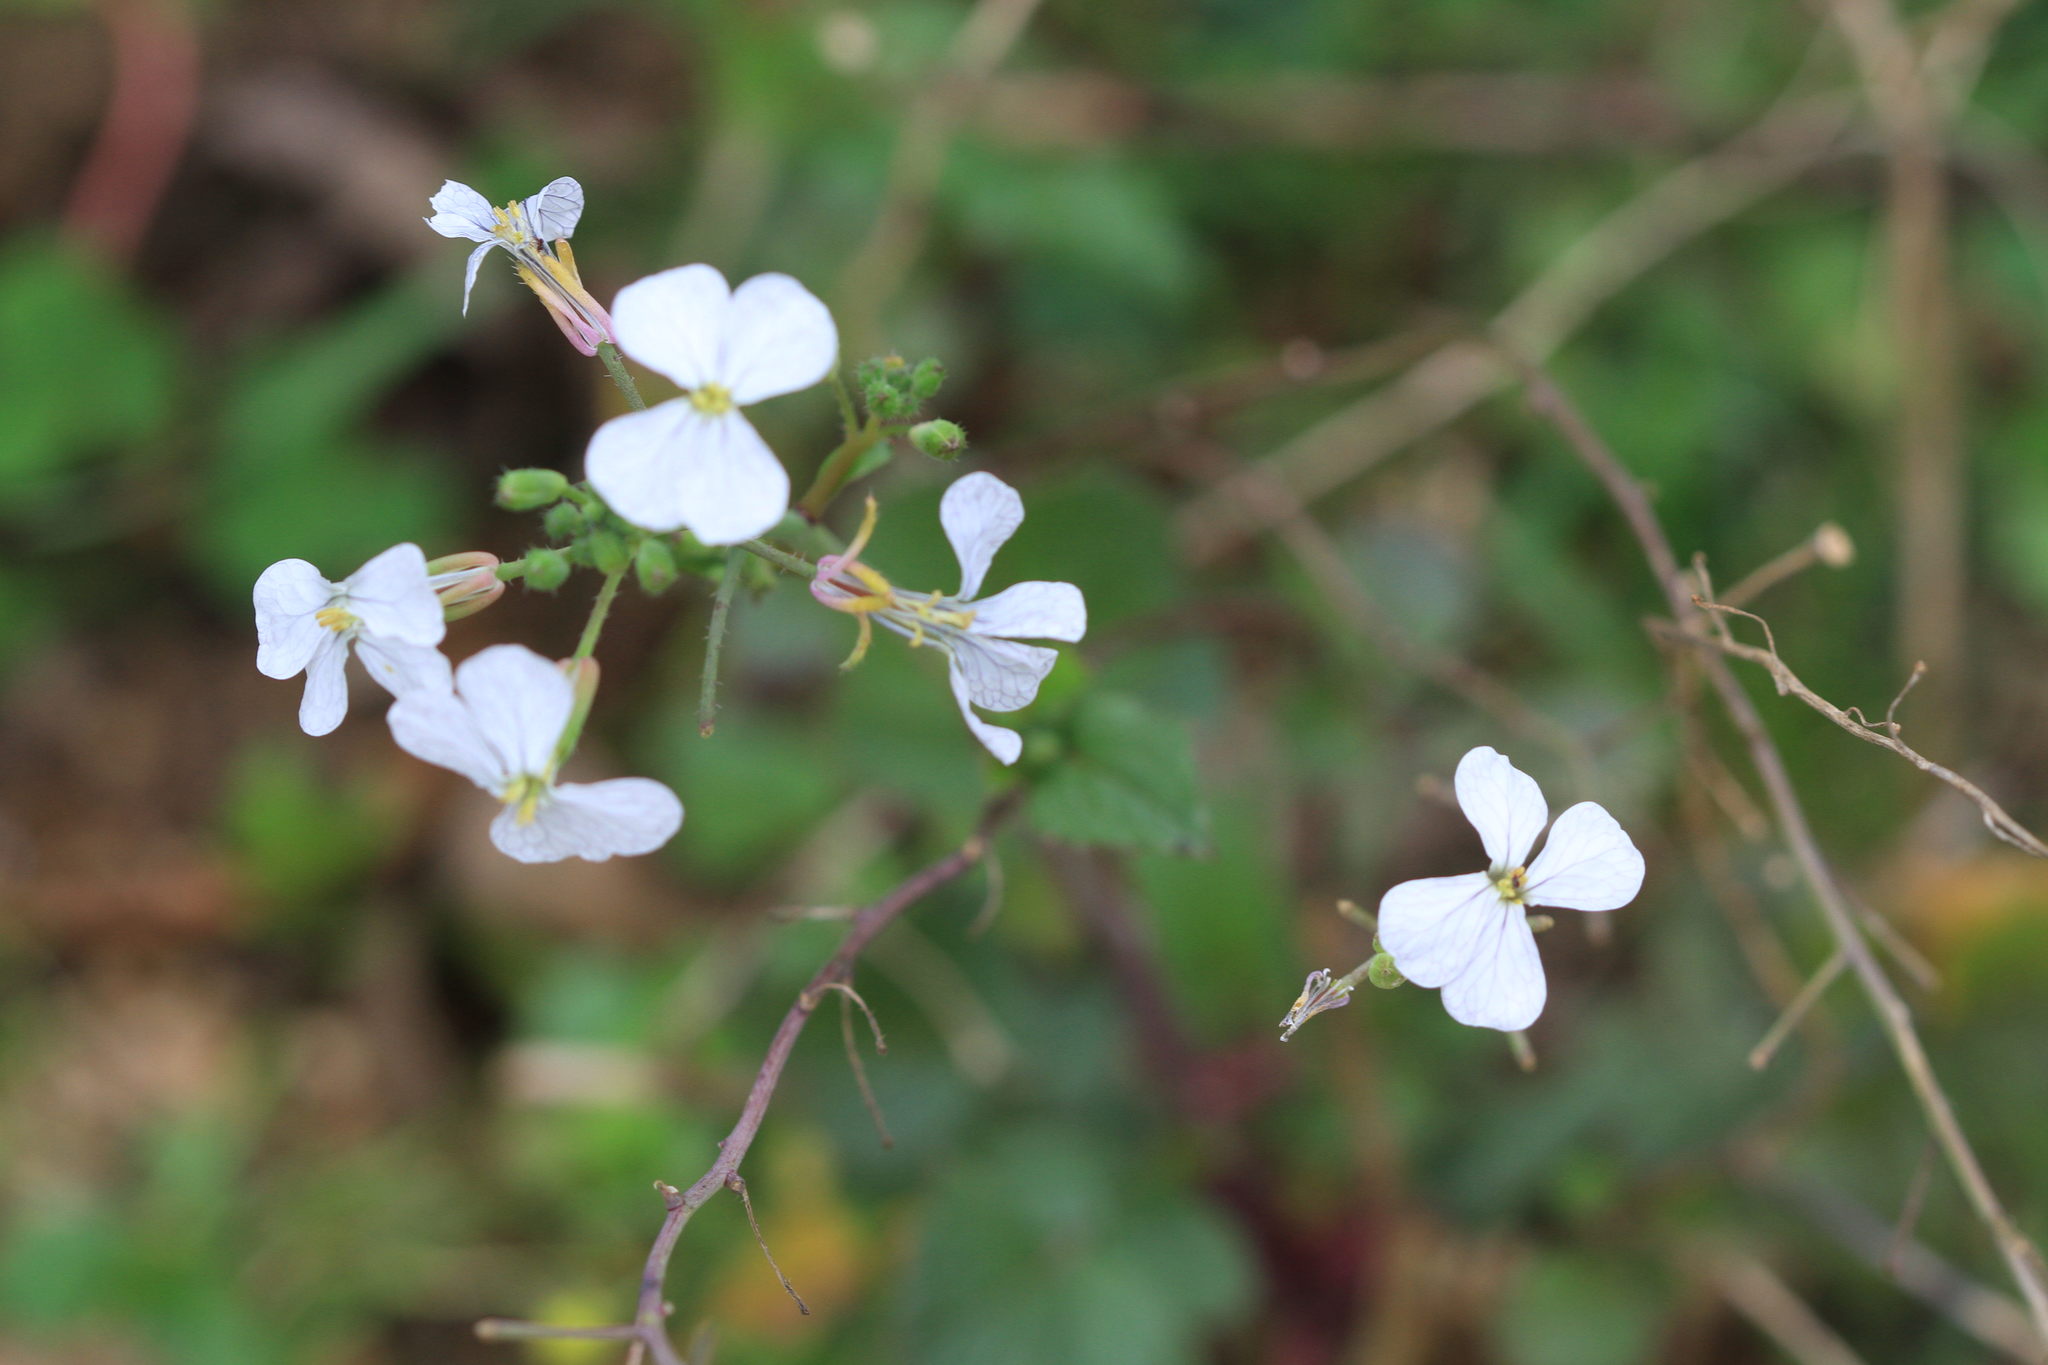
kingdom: Plantae
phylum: Tracheophyta
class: Magnoliopsida
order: Brassicales
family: Brassicaceae
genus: Raphanus
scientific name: Raphanus sativus
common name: Cultivated radish
